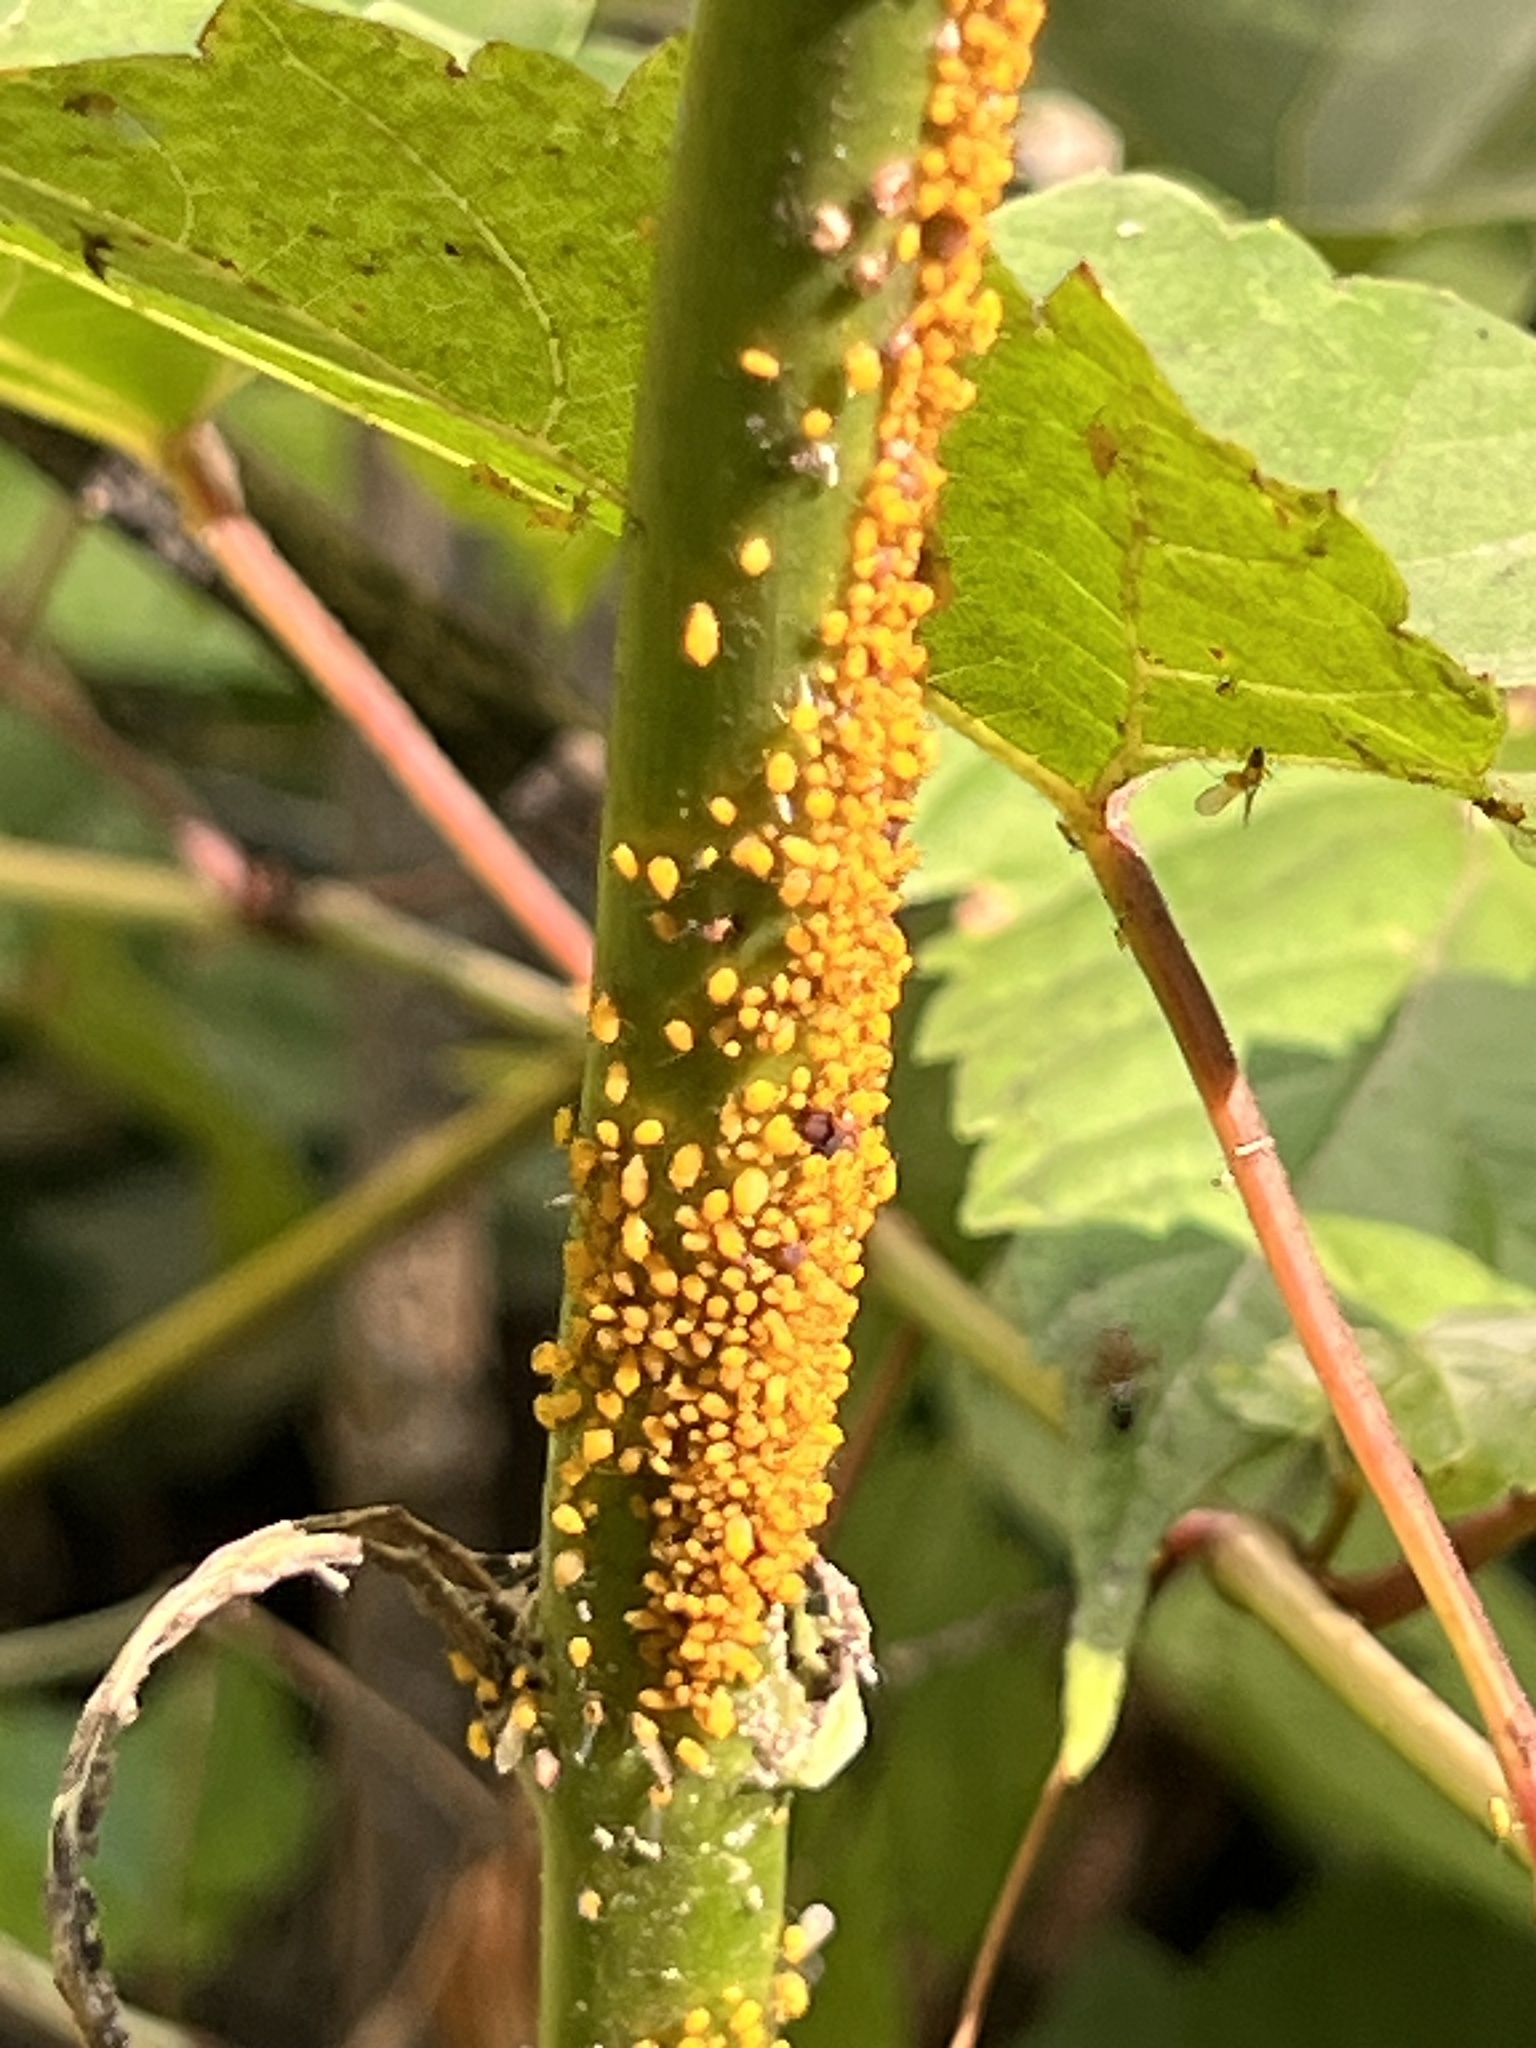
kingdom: Animalia
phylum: Arthropoda
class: Insecta
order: Hemiptera
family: Aphididae
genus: Aphis
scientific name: Aphis nerii
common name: Oleander aphid
